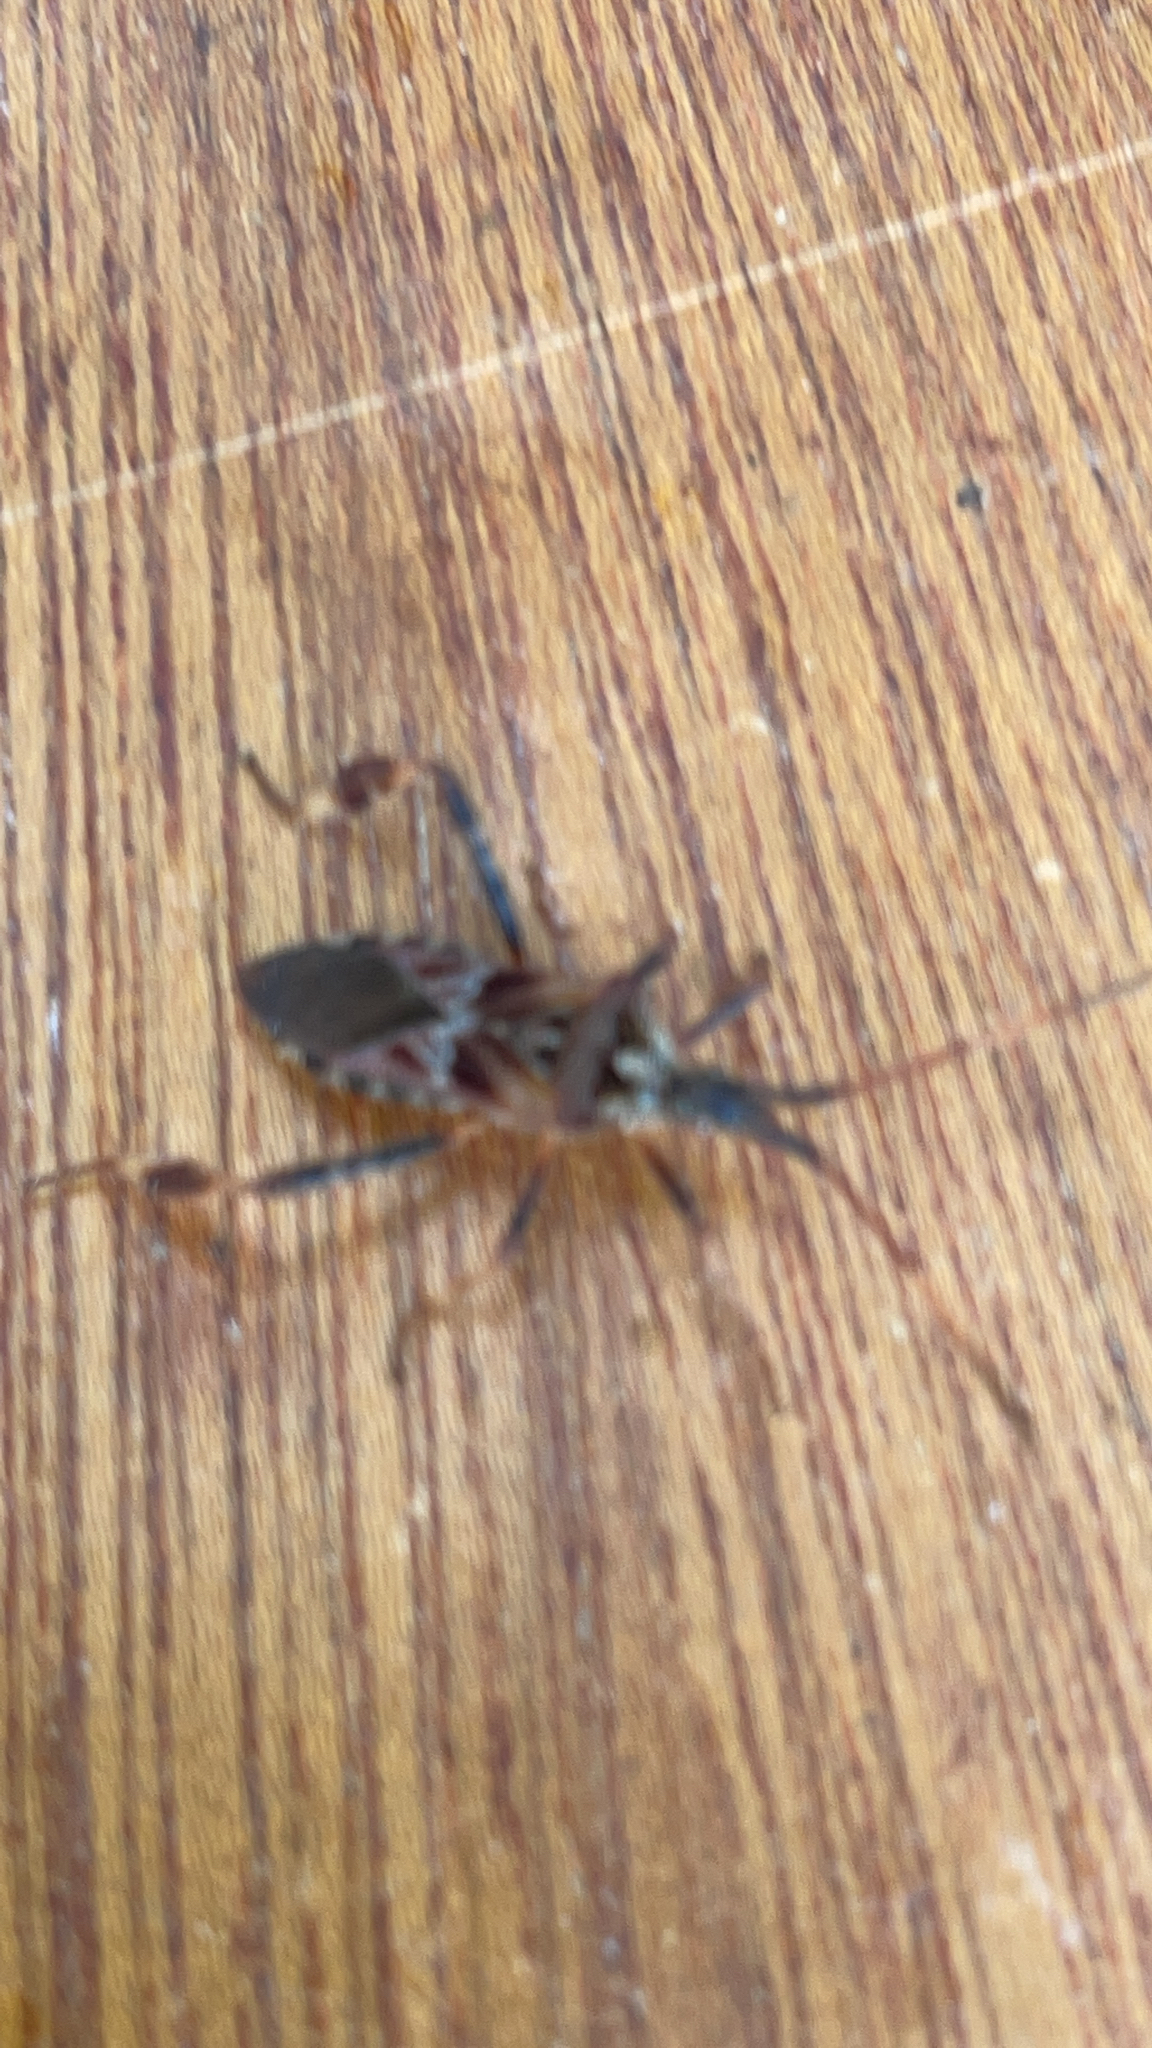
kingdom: Animalia
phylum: Arthropoda
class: Insecta
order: Hemiptera
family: Coreidae
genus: Leptoglossus
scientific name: Leptoglossus occidentalis
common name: Western conifer-seed bug
